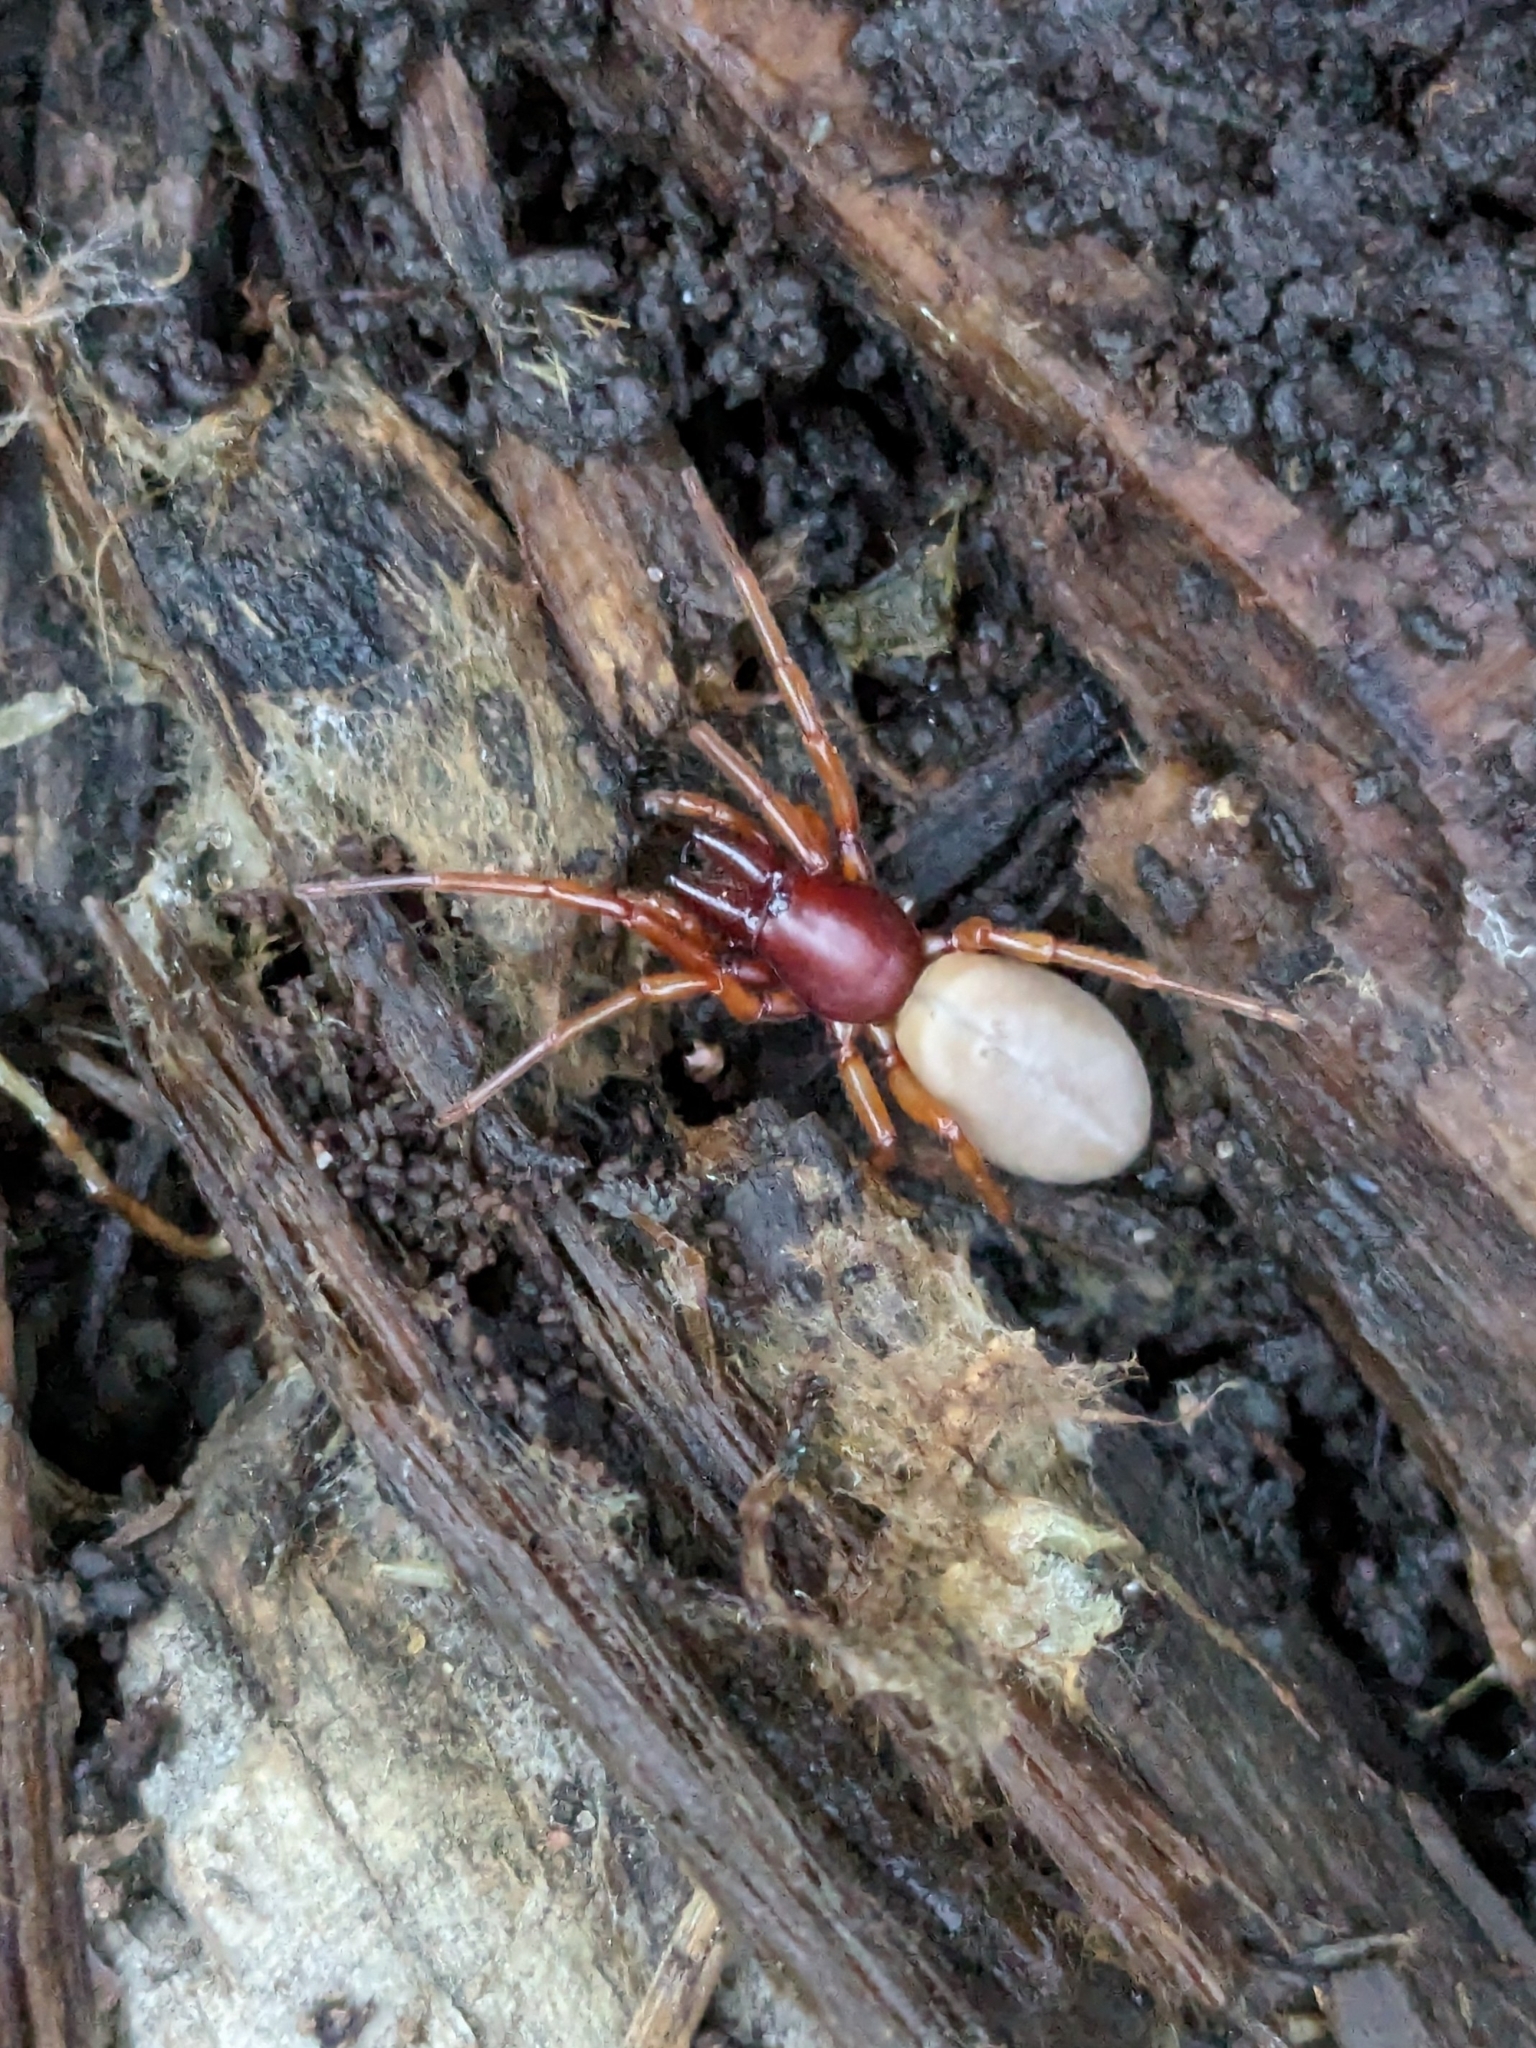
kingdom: Animalia
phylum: Arthropoda
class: Arachnida
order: Araneae
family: Dysderidae
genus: Dysdera
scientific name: Dysdera crocata
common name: Woodlouse spider
